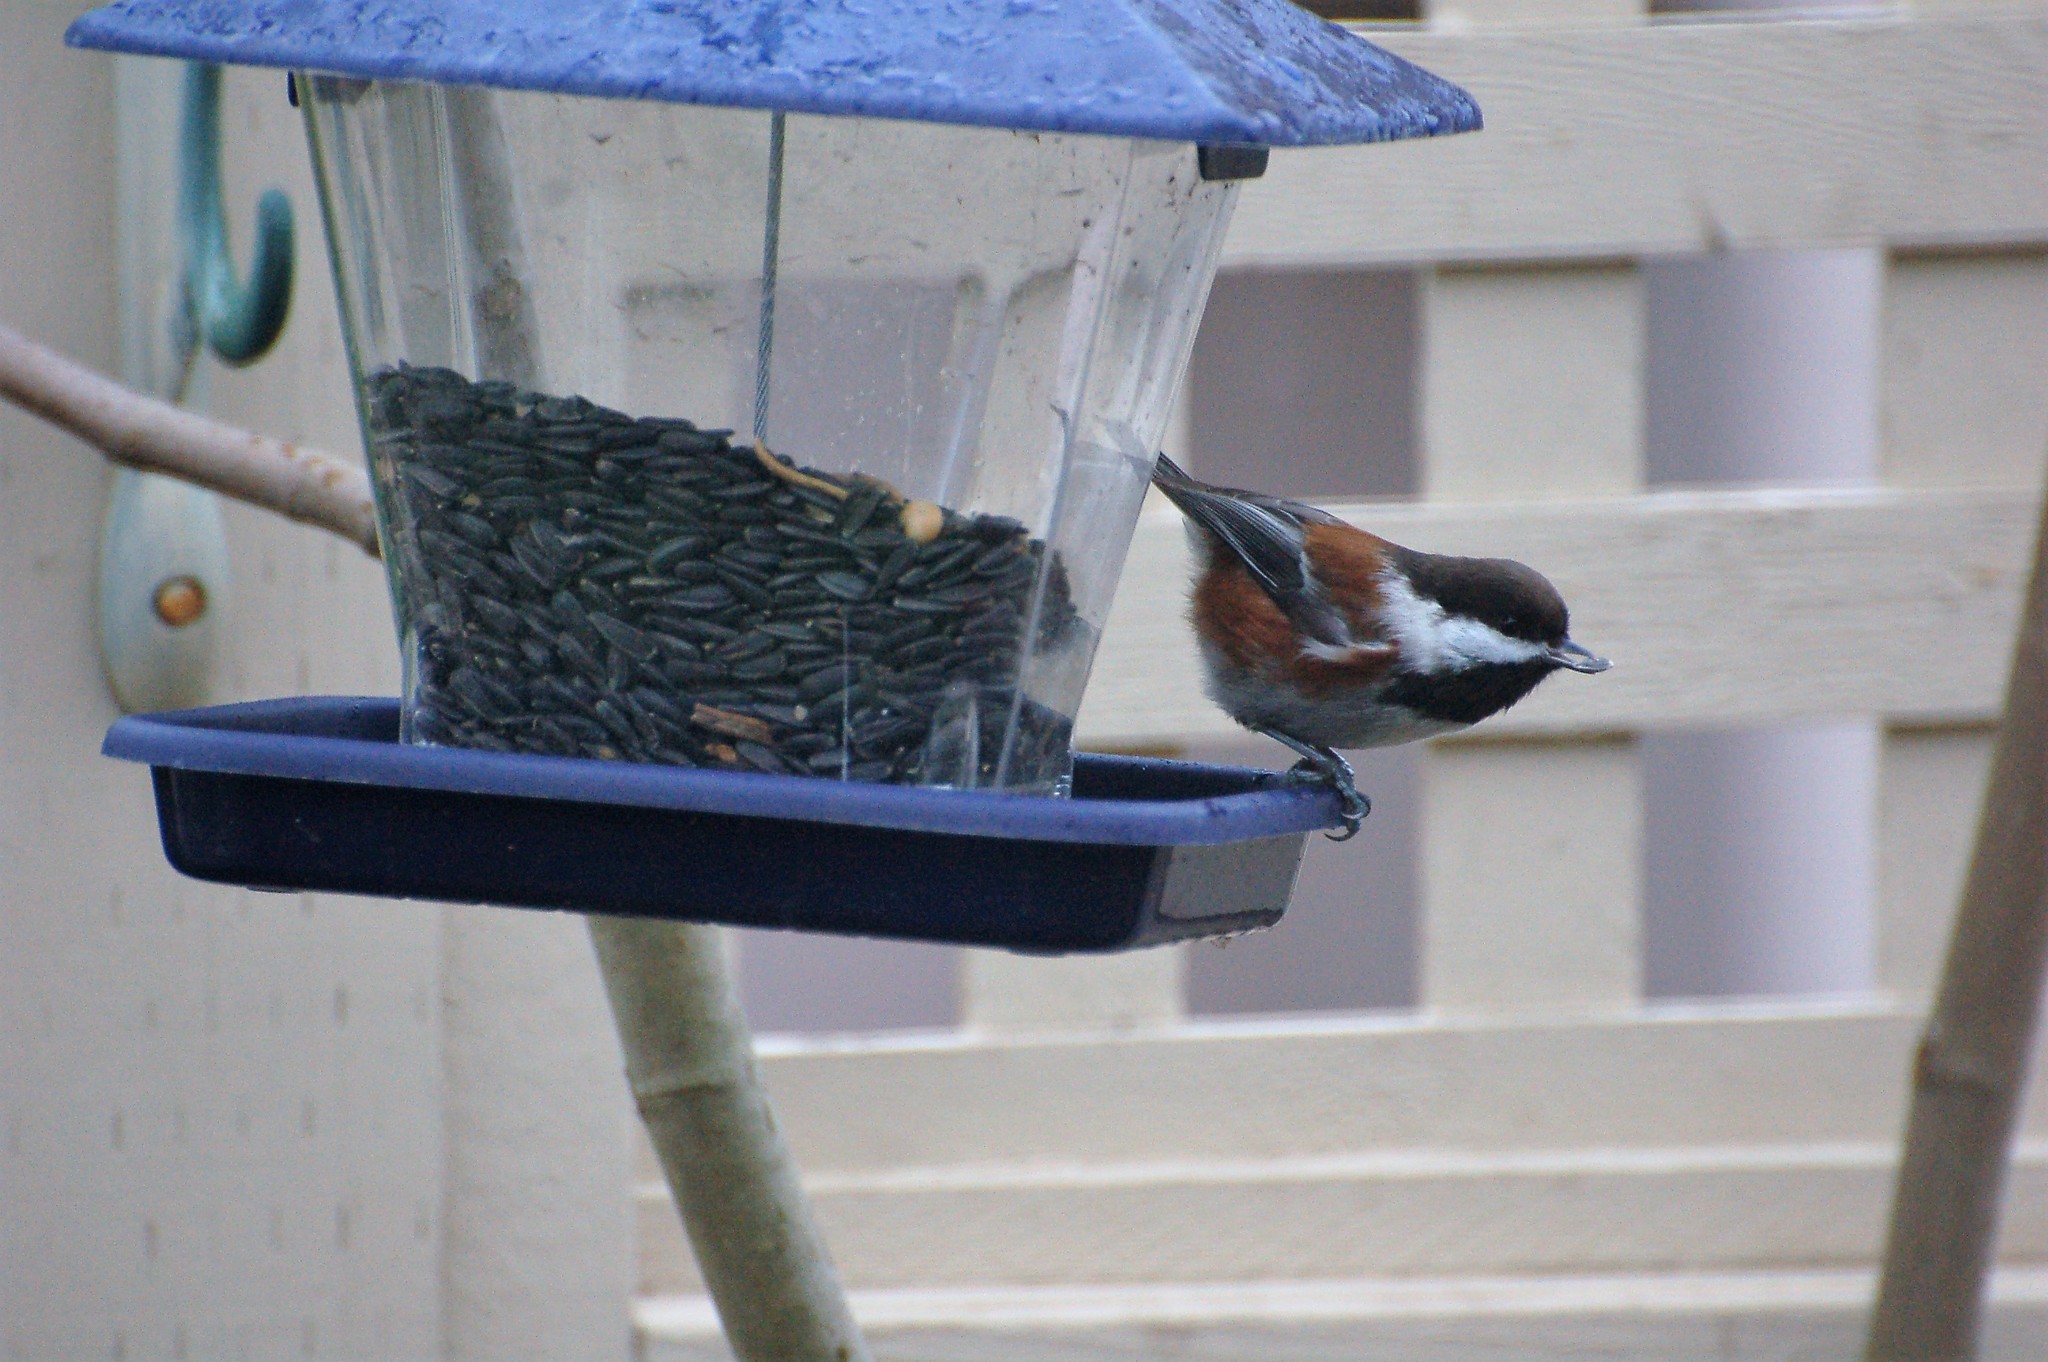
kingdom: Animalia
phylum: Chordata
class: Aves
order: Passeriformes
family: Paridae
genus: Poecile
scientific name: Poecile rufescens
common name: Chestnut-backed chickadee
